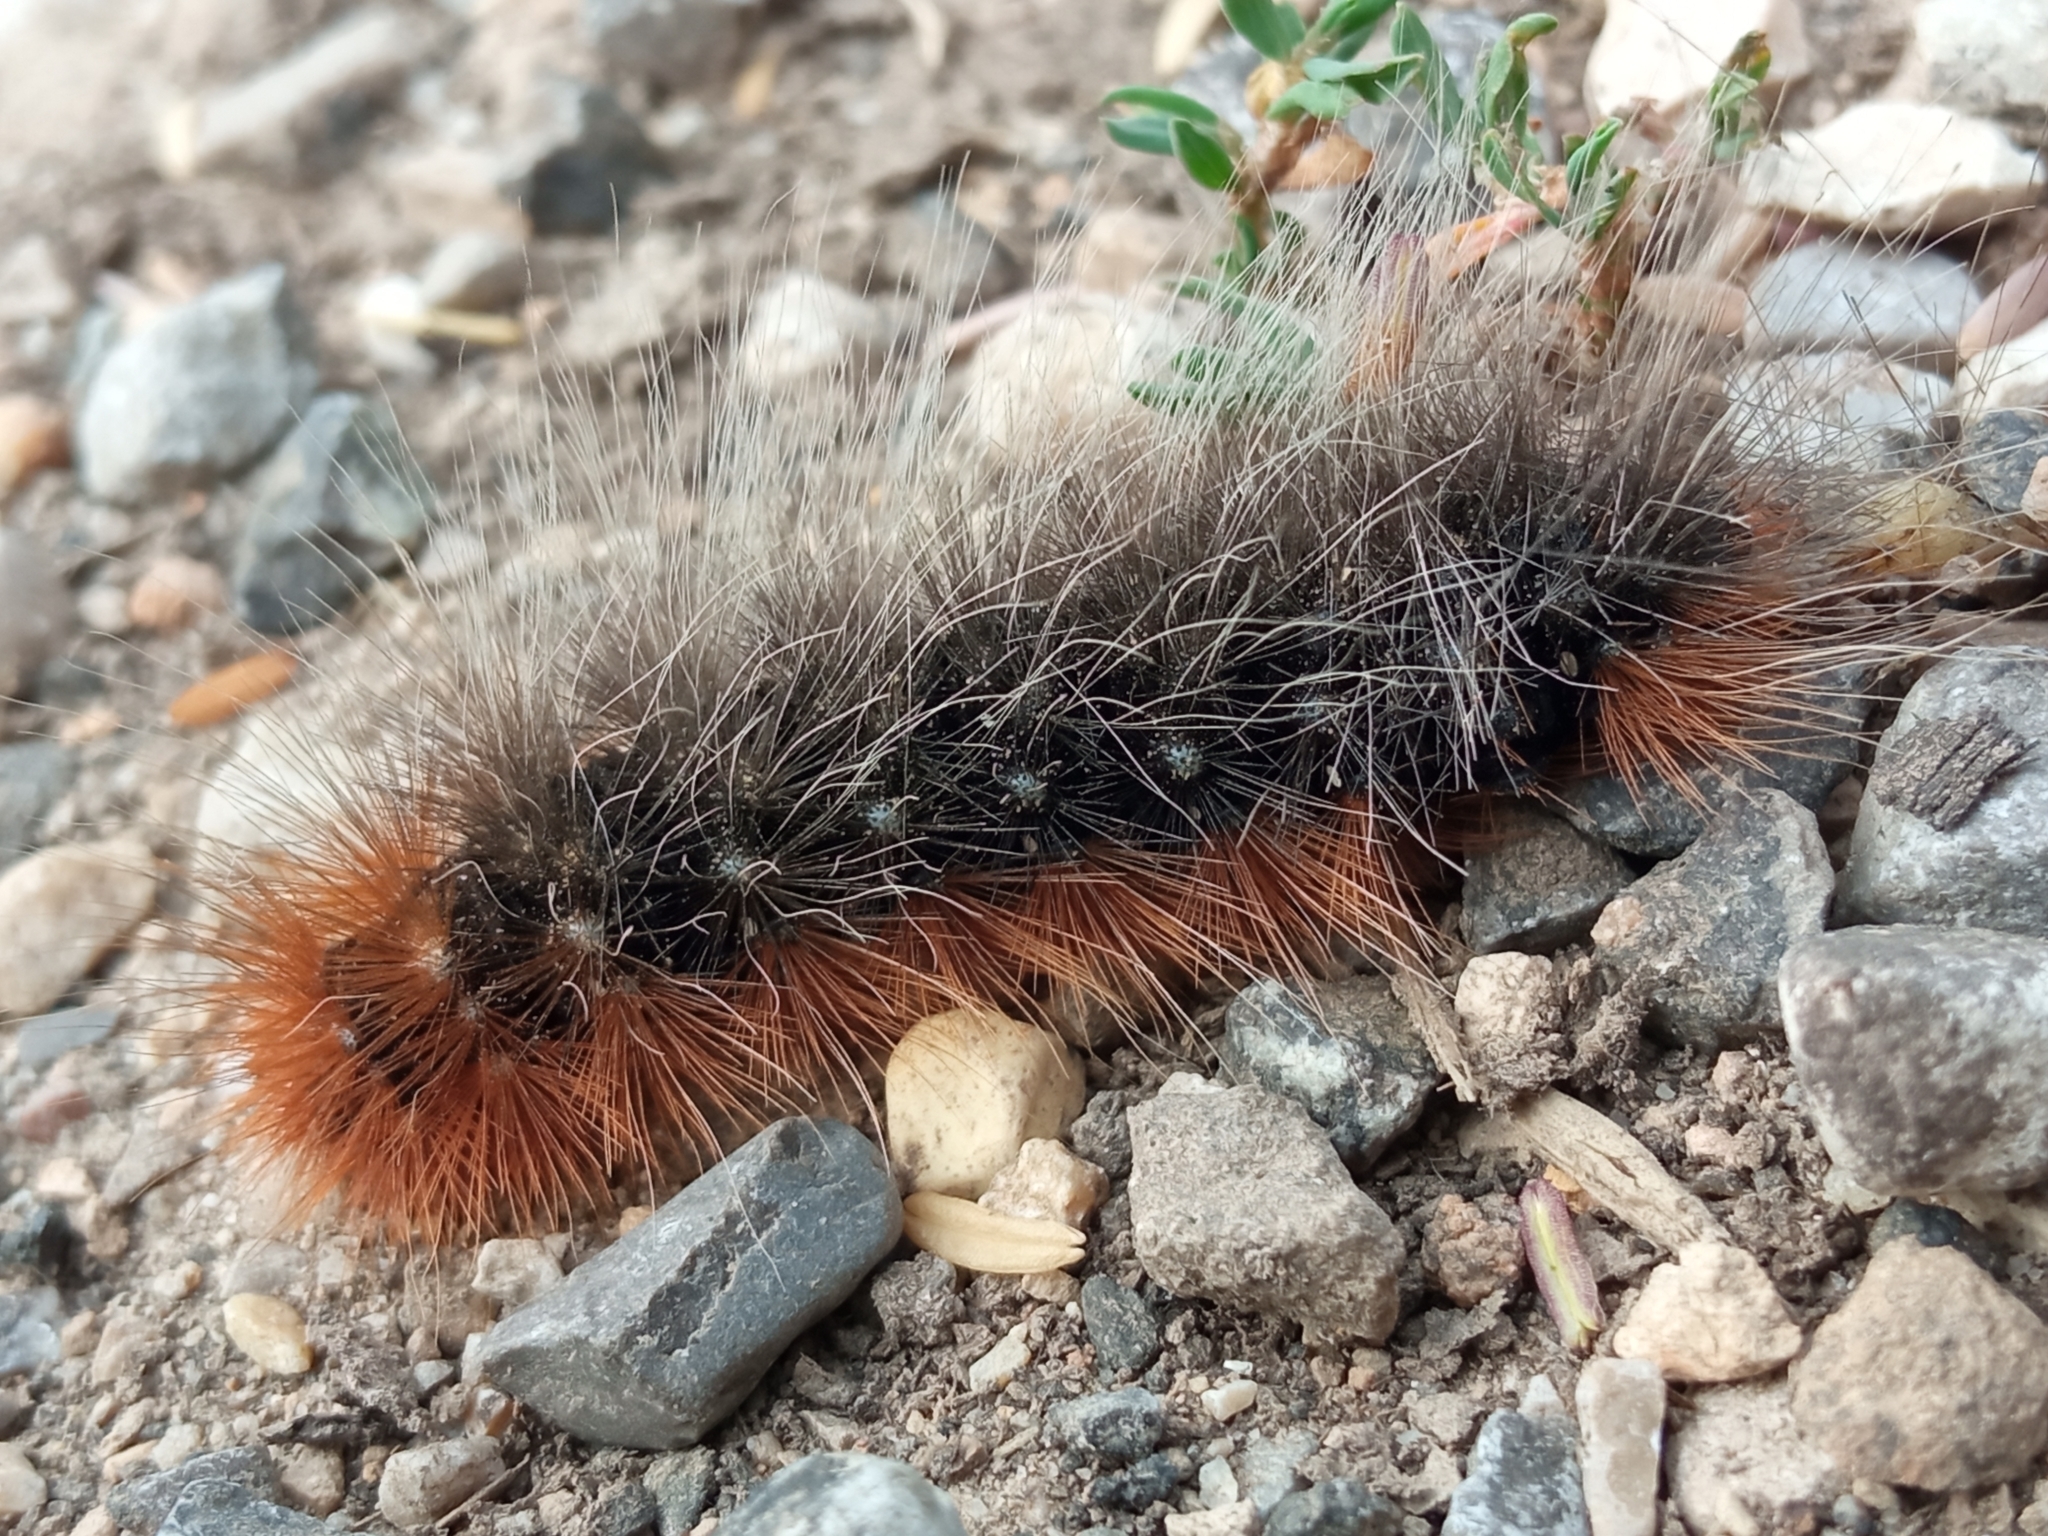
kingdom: Animalia
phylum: Arthropoda
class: Insecta
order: Lepidoptera
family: Erebidae
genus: Arctia
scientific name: Arctia caja
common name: Garden tiger
